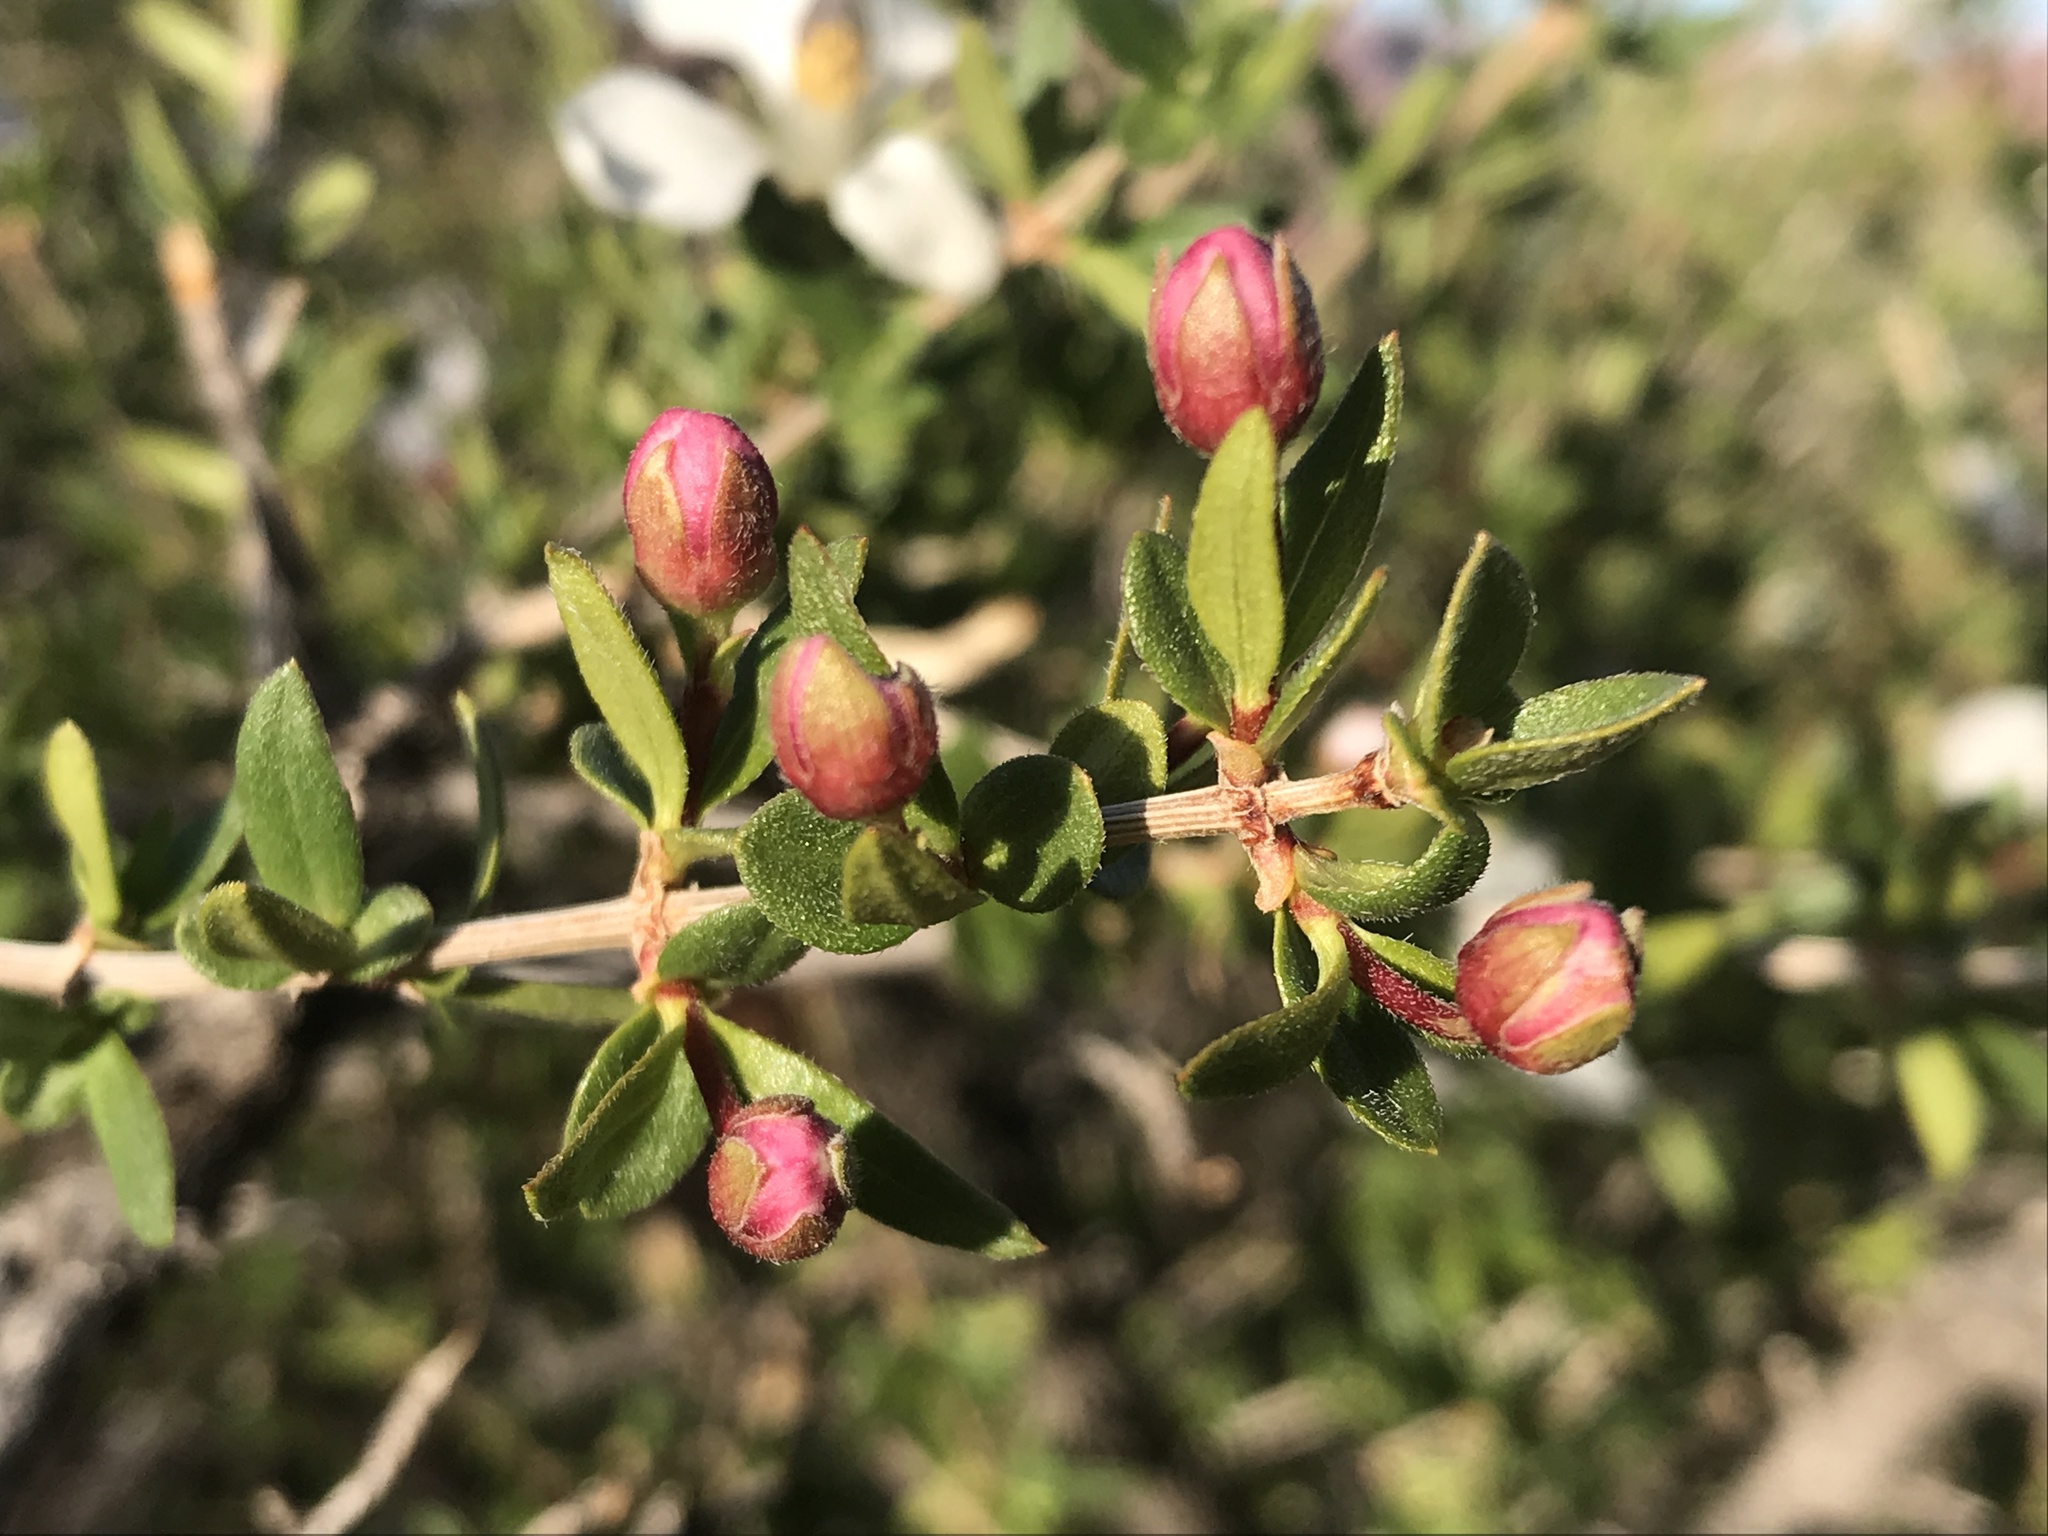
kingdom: Plantae
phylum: Tracheophyta
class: Magnoliopsida
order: Cornales
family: Hydrangeaceae
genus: Fendlera
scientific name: Fendlera rupicola
